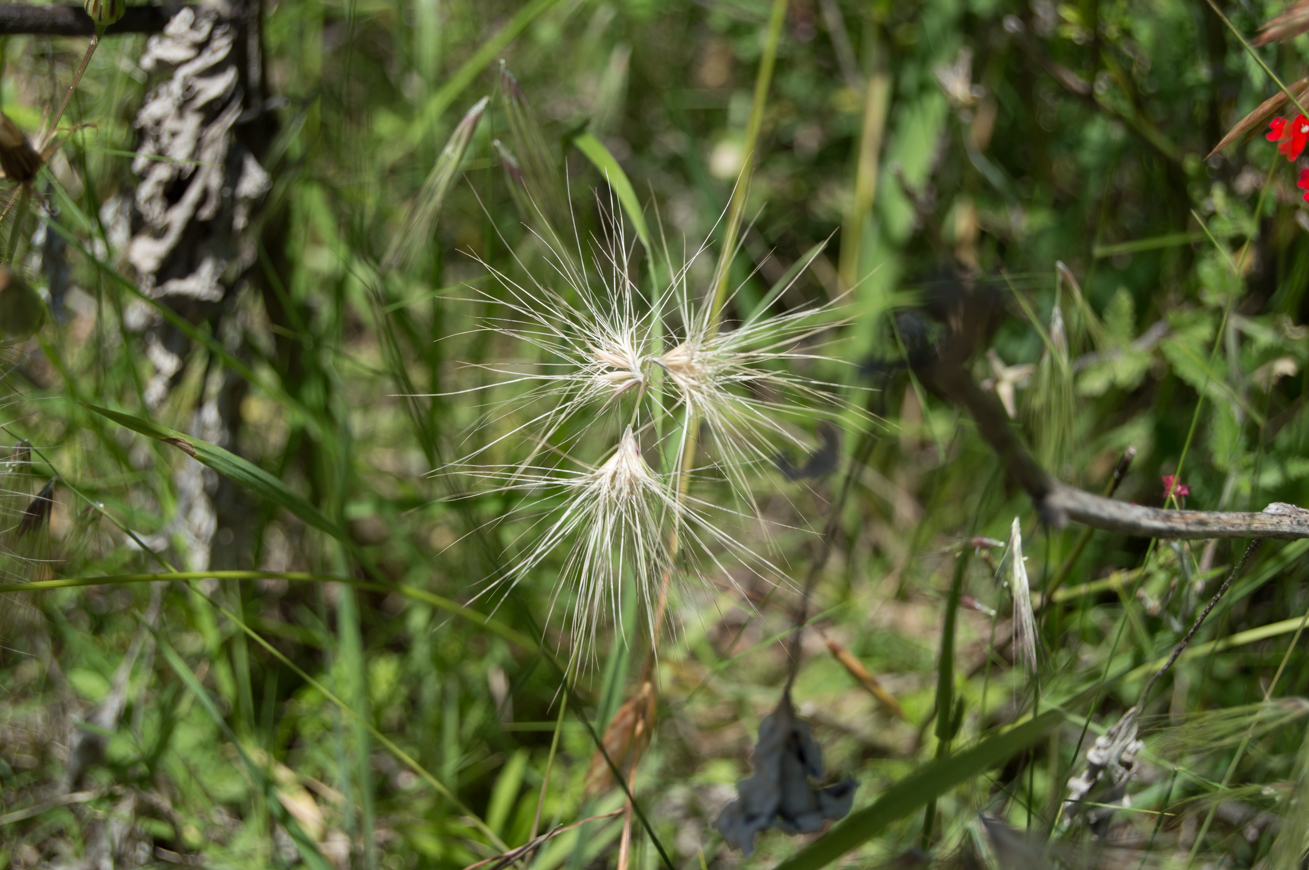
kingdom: Plantae
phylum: Tracheophyta
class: Liliopsida
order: Poales
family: Poaceae
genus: Bouteloua
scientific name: Bouteloua megapotamica
